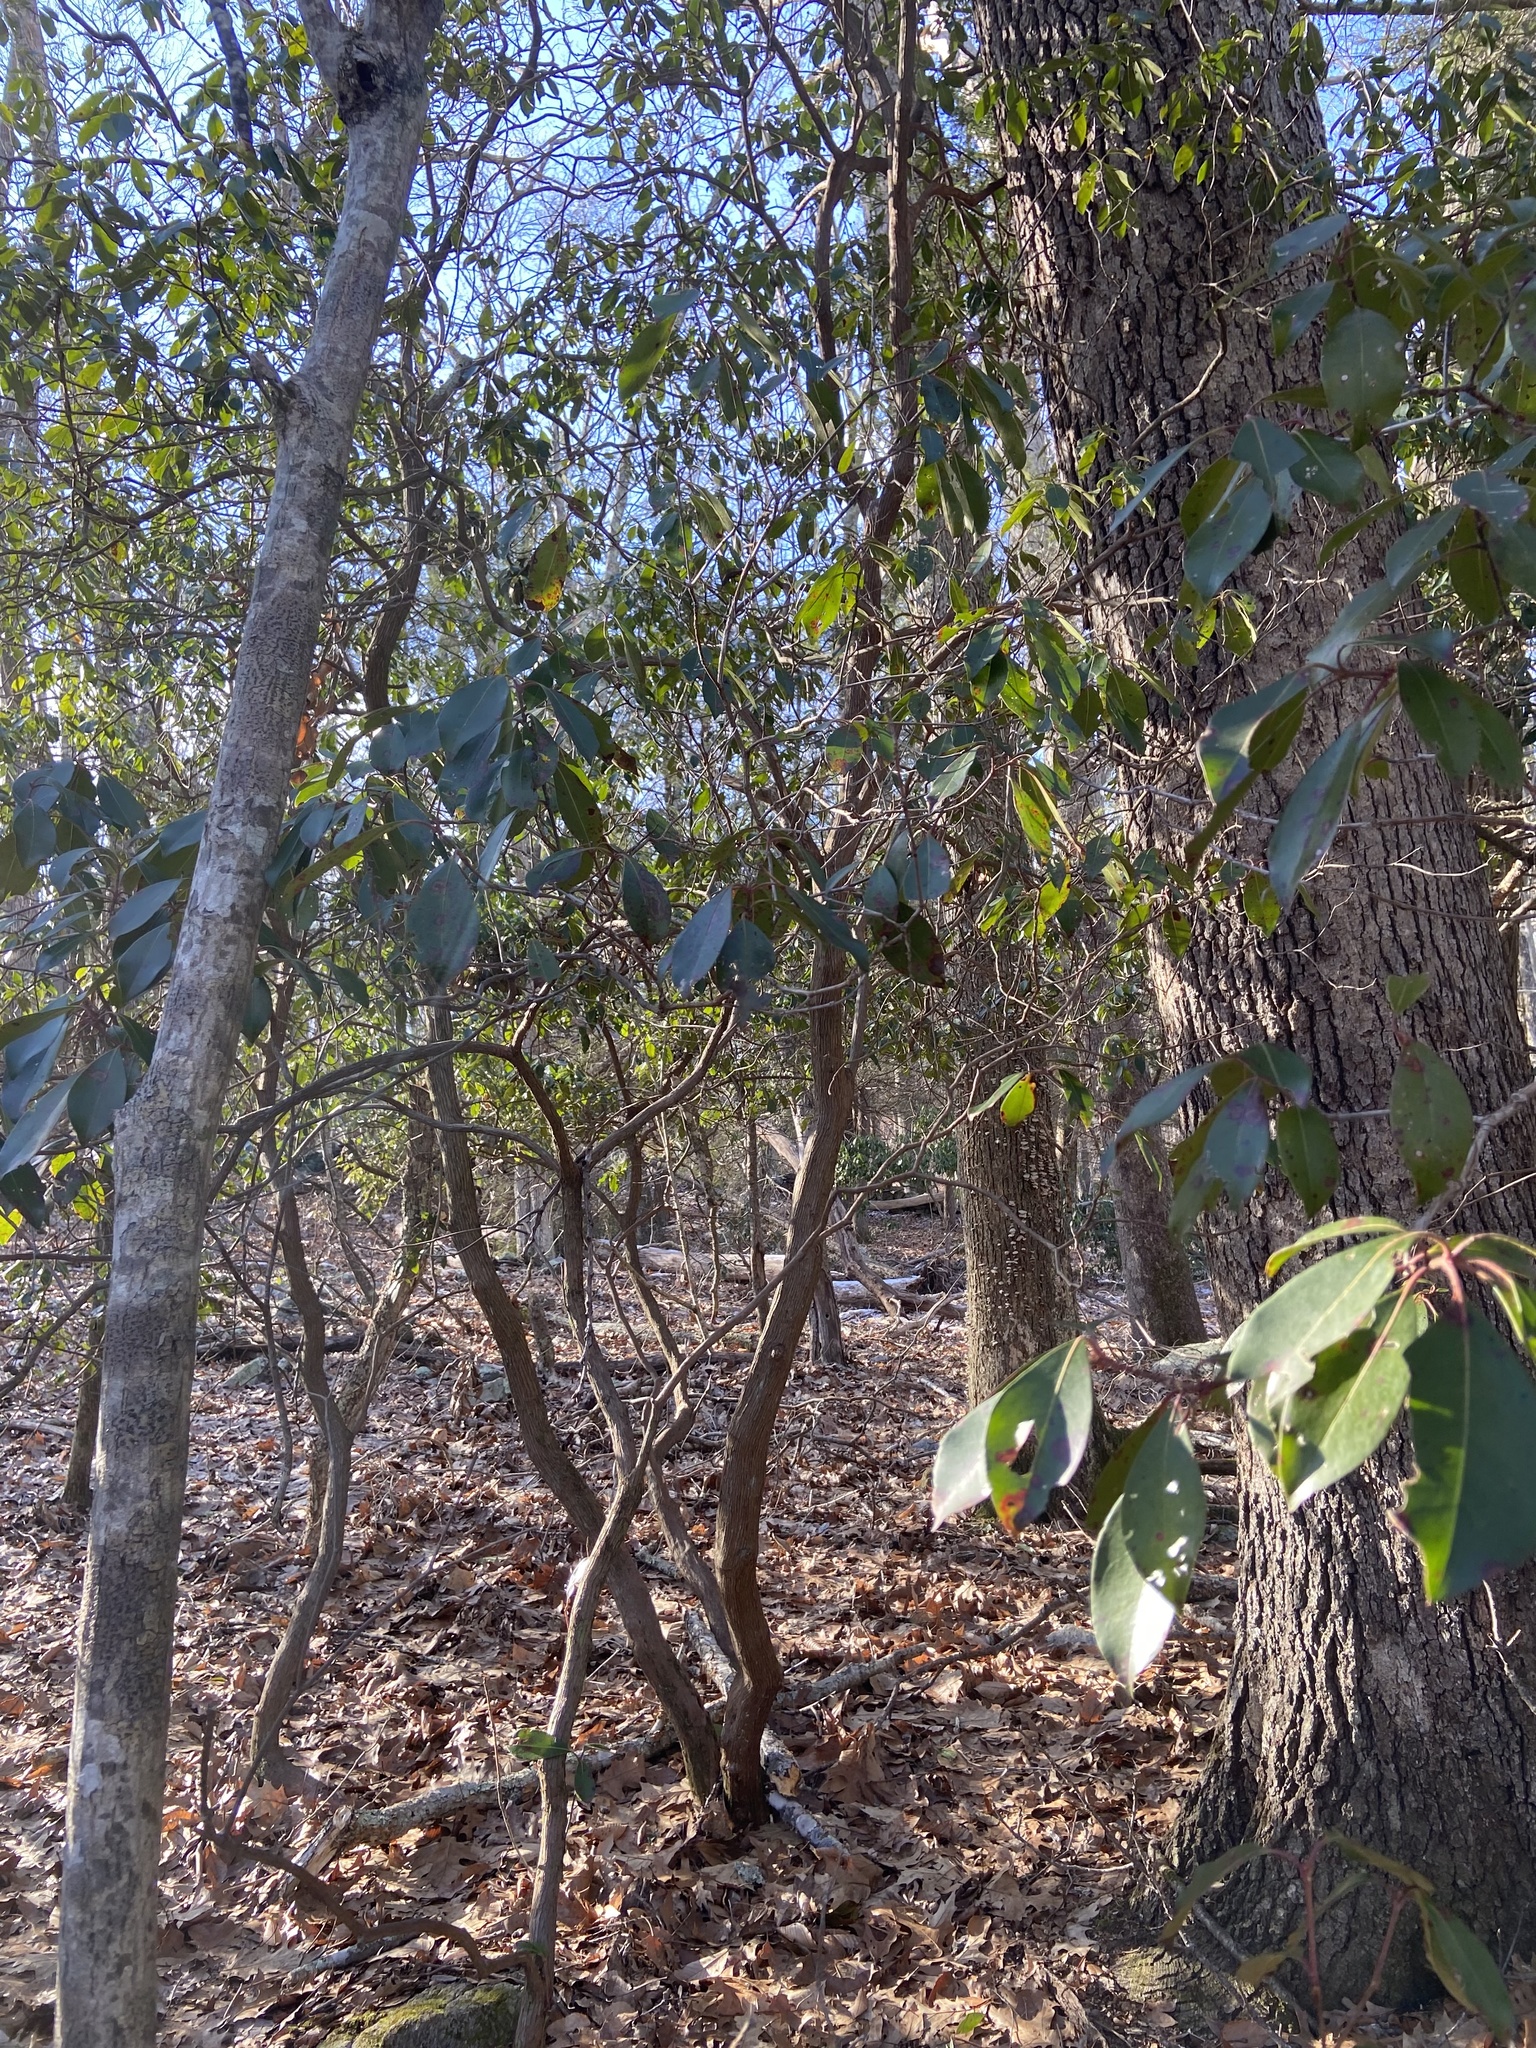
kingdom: Plantae
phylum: Tracheophyta
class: Magnoliopsida
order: Ericales
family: Ericaceae
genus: Kalmia
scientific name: Kalmia latifolia
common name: Mountain-laurel
